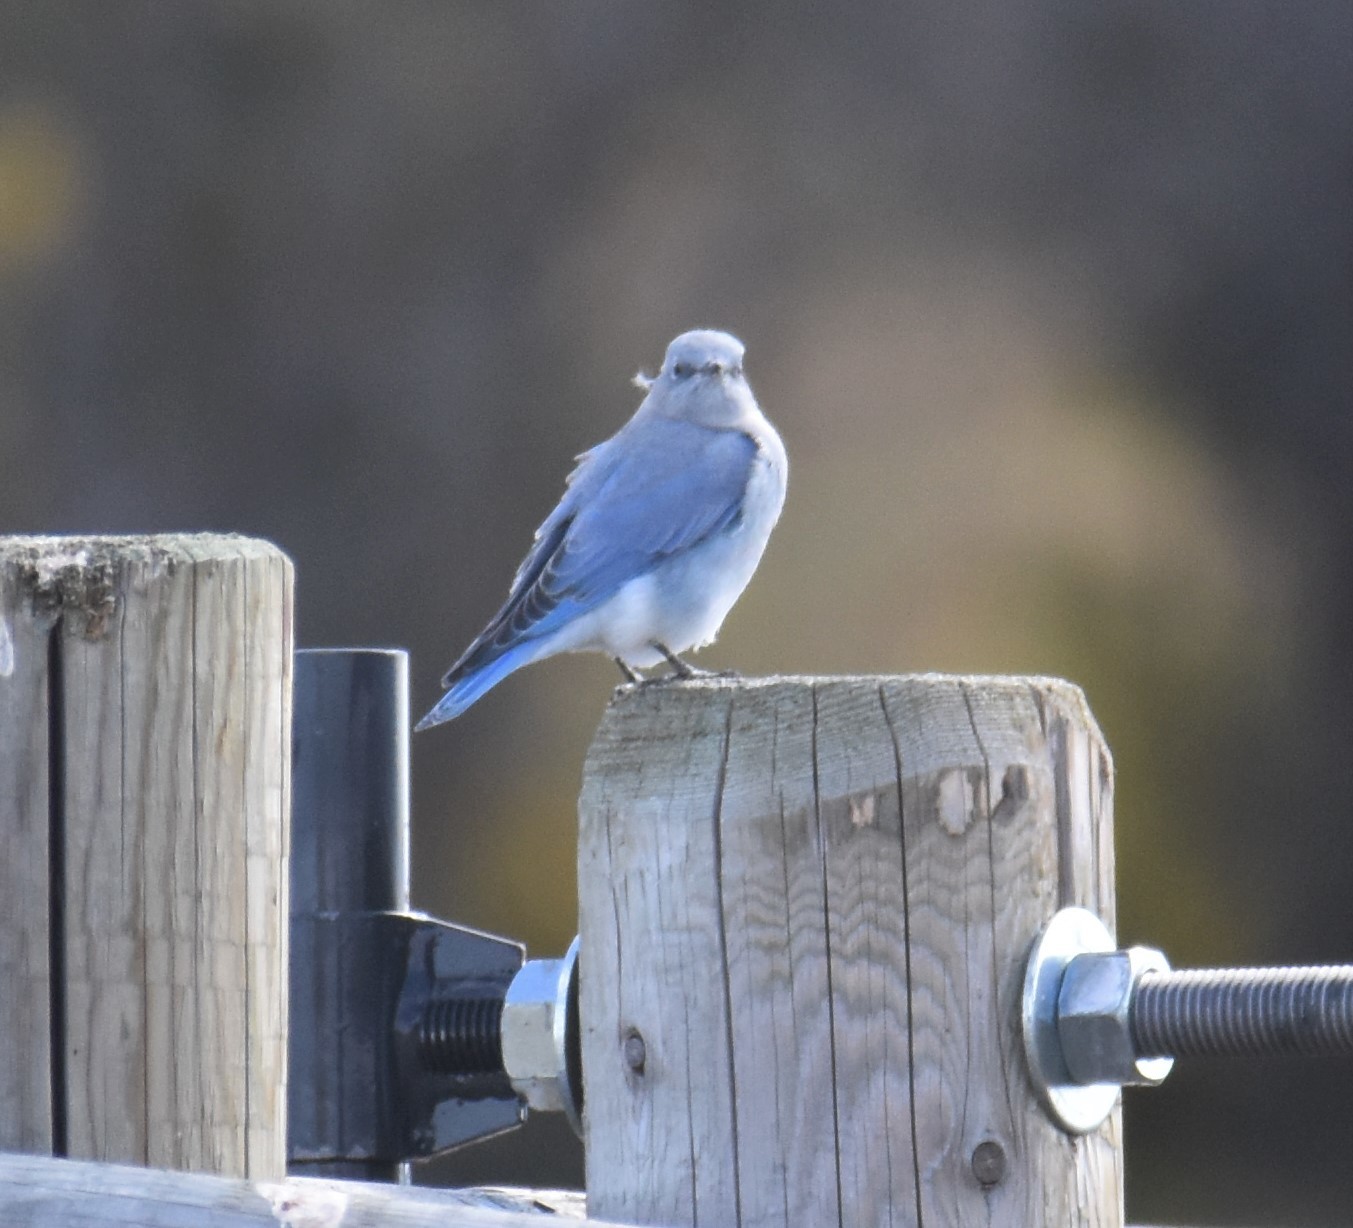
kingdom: Animalia
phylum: Chordata
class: Aves
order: Passeriformes
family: Turdidae
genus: Sialia
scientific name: Sialia currucoides
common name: Mountain bluebird
